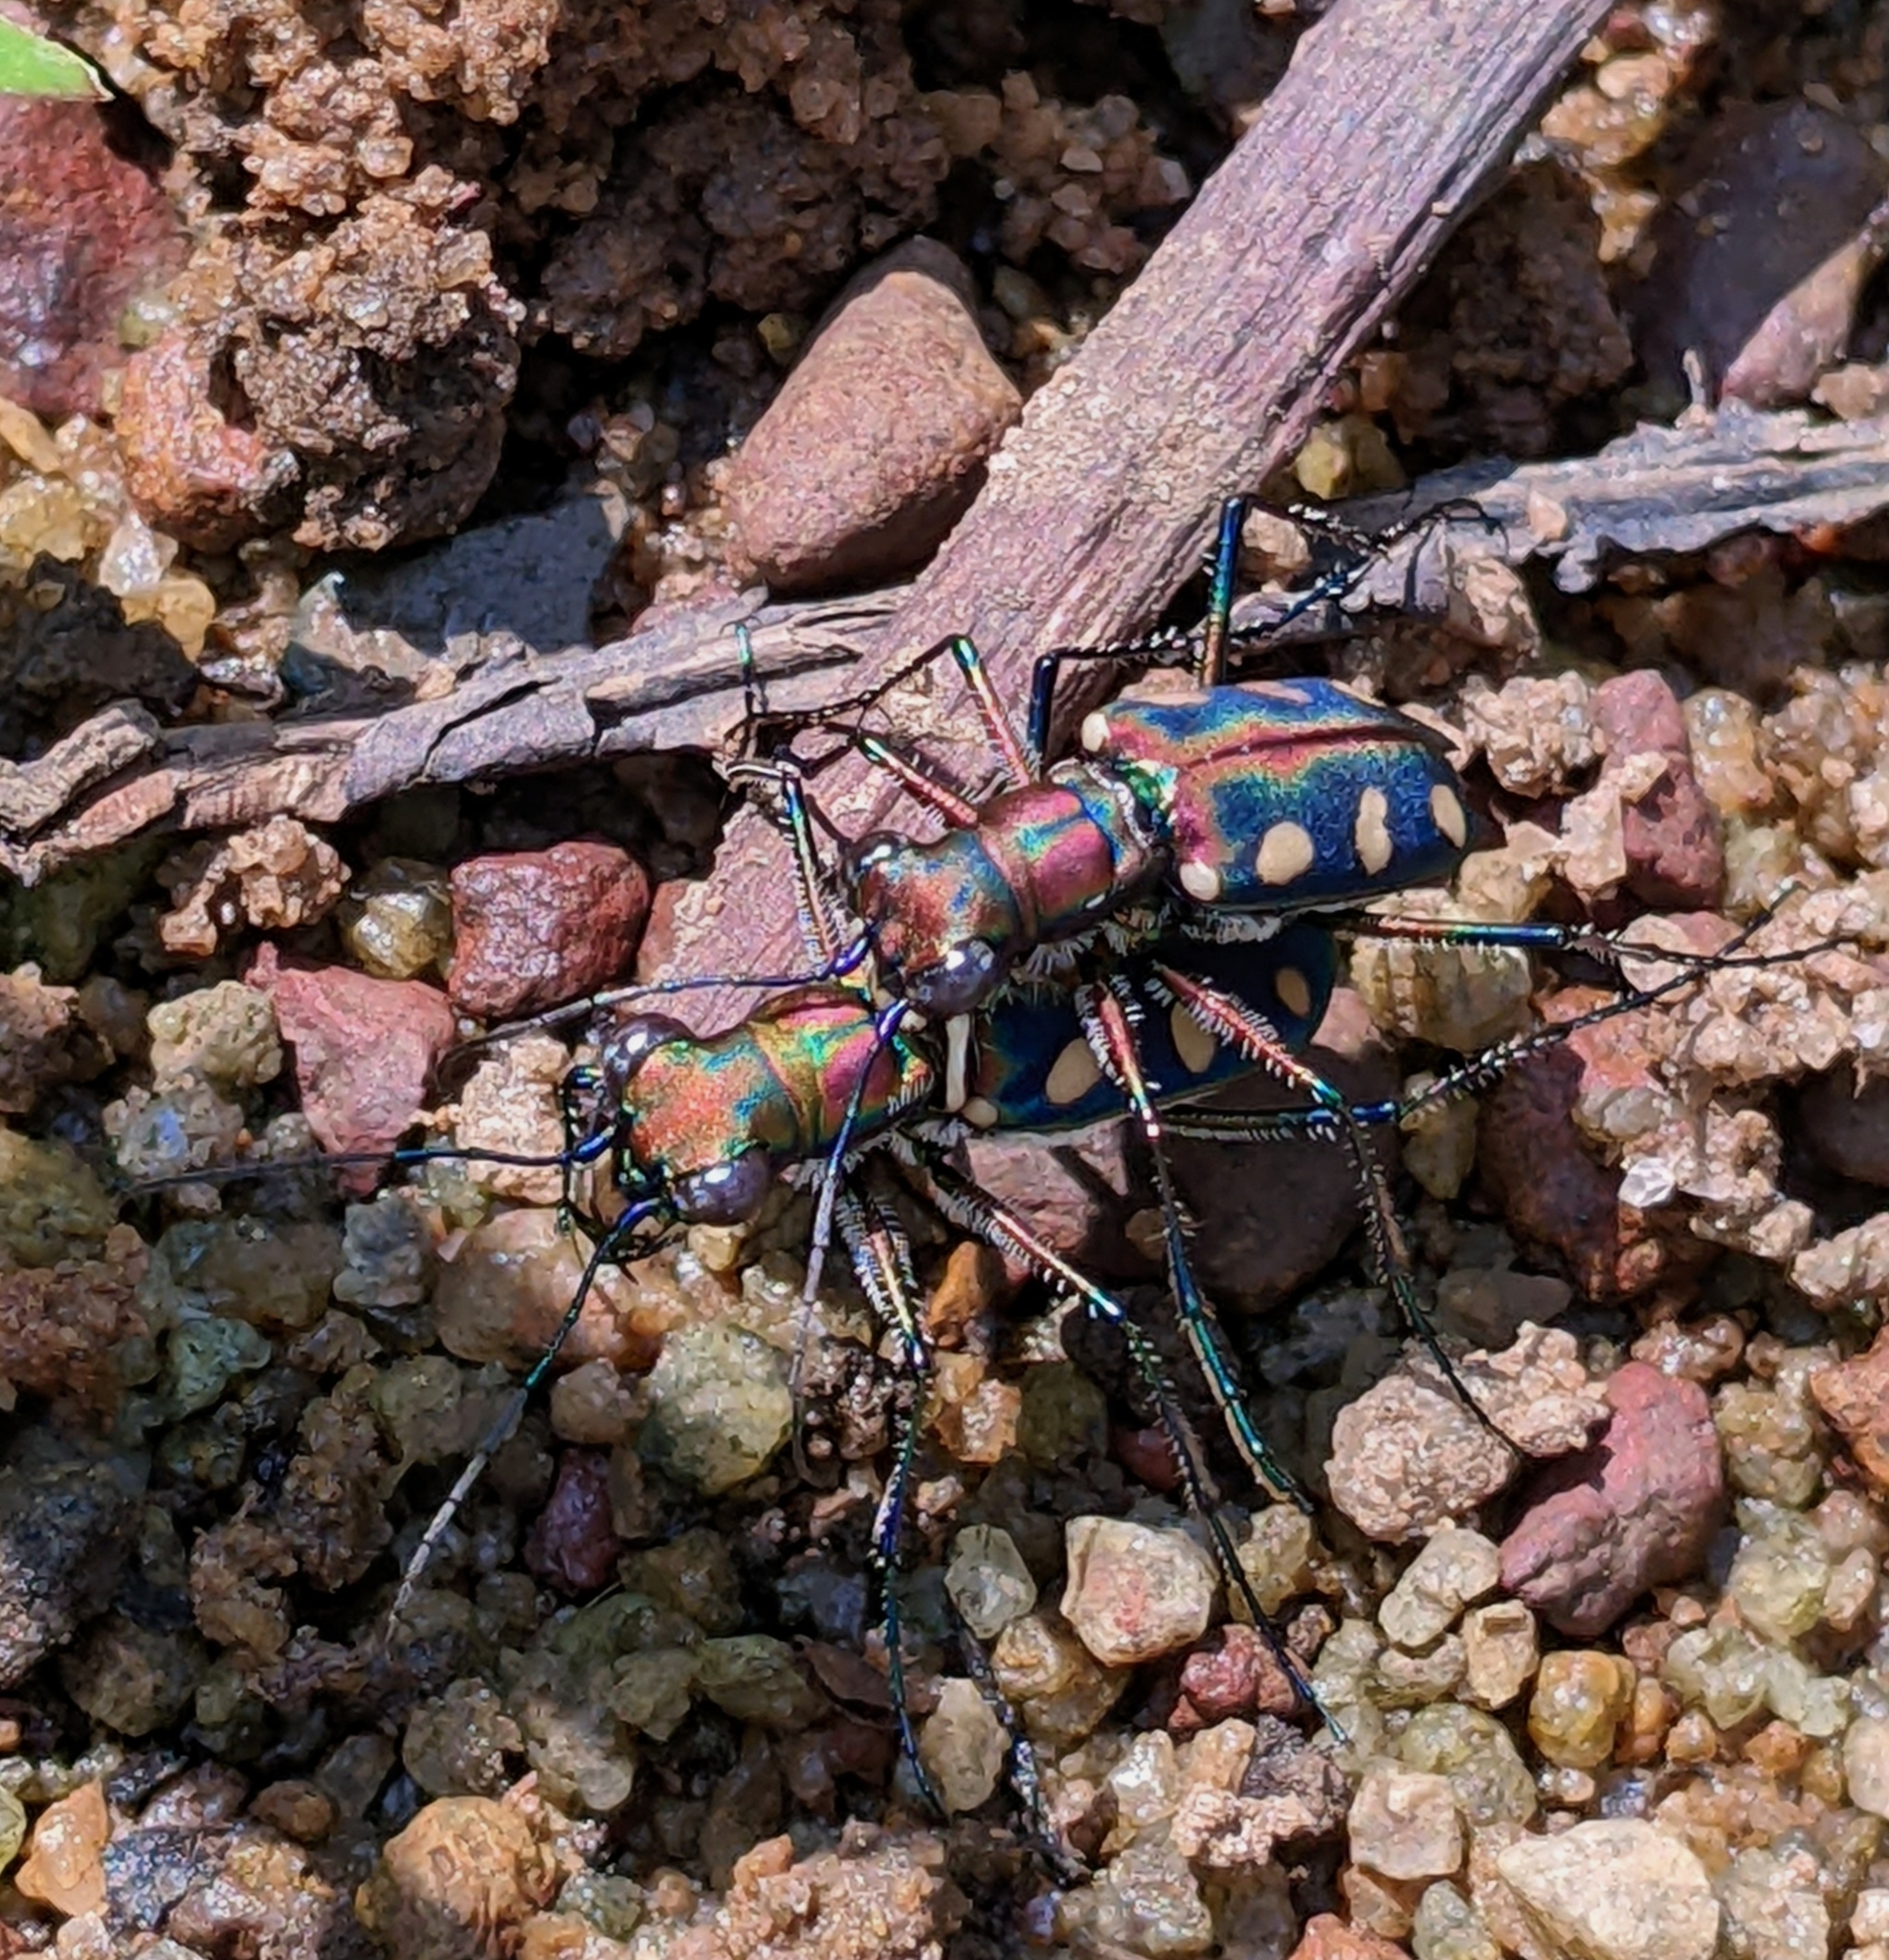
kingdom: Animalia
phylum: Arthropoda
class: Insecta
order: Coleoptera
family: Carabidae
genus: Cicindela
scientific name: Cicindela aurulenta
